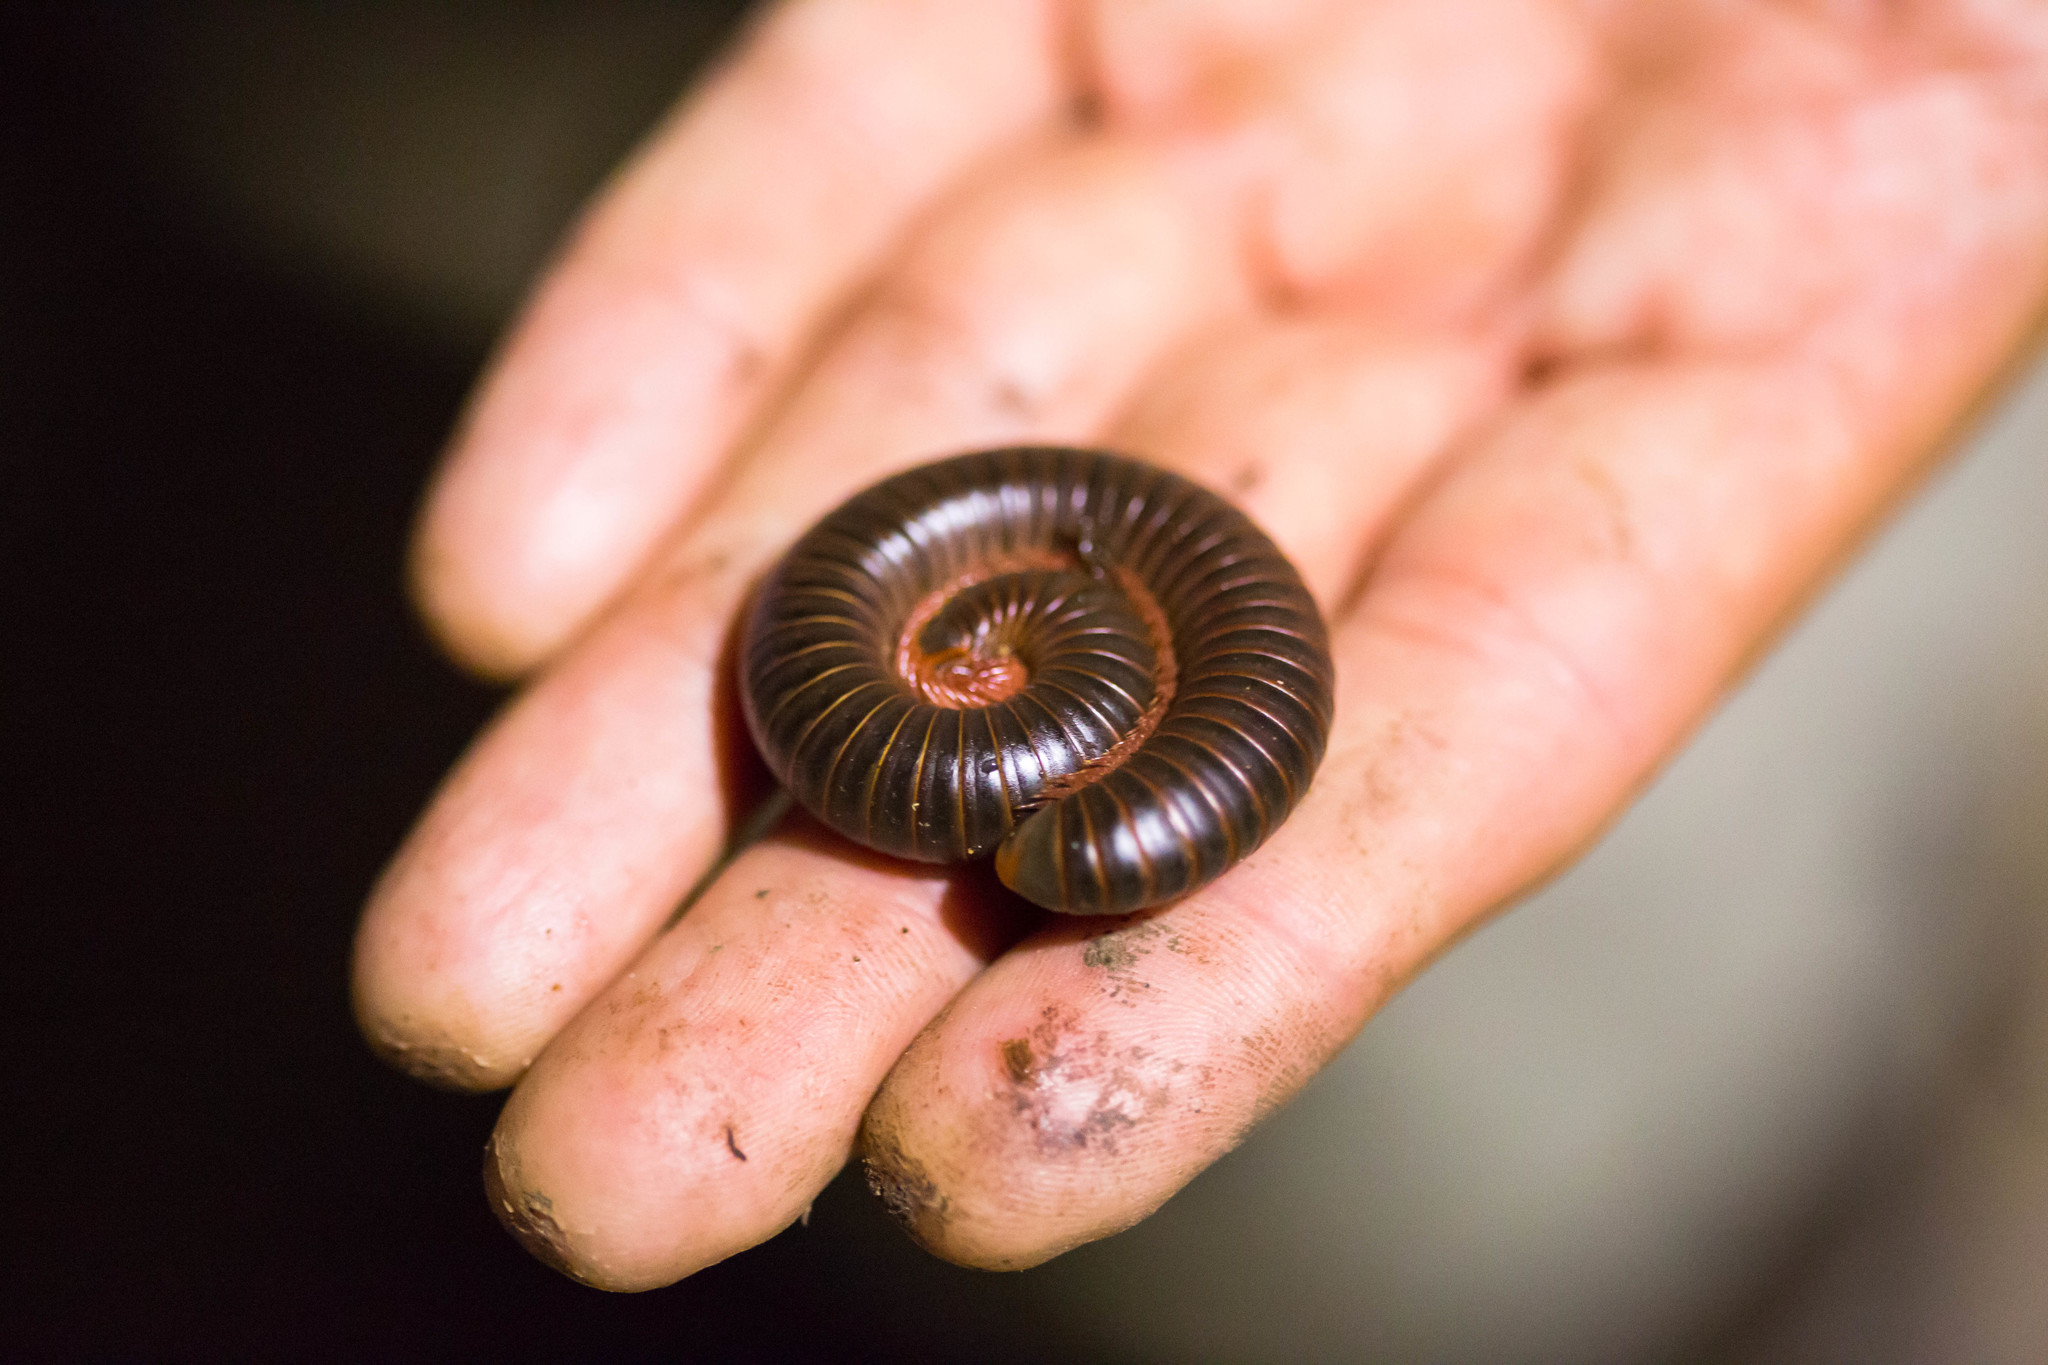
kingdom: Animalia
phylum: Arthropoda
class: Diplopoda
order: Spirobolida
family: Spirobolidae
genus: Narceus
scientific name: Narceus
